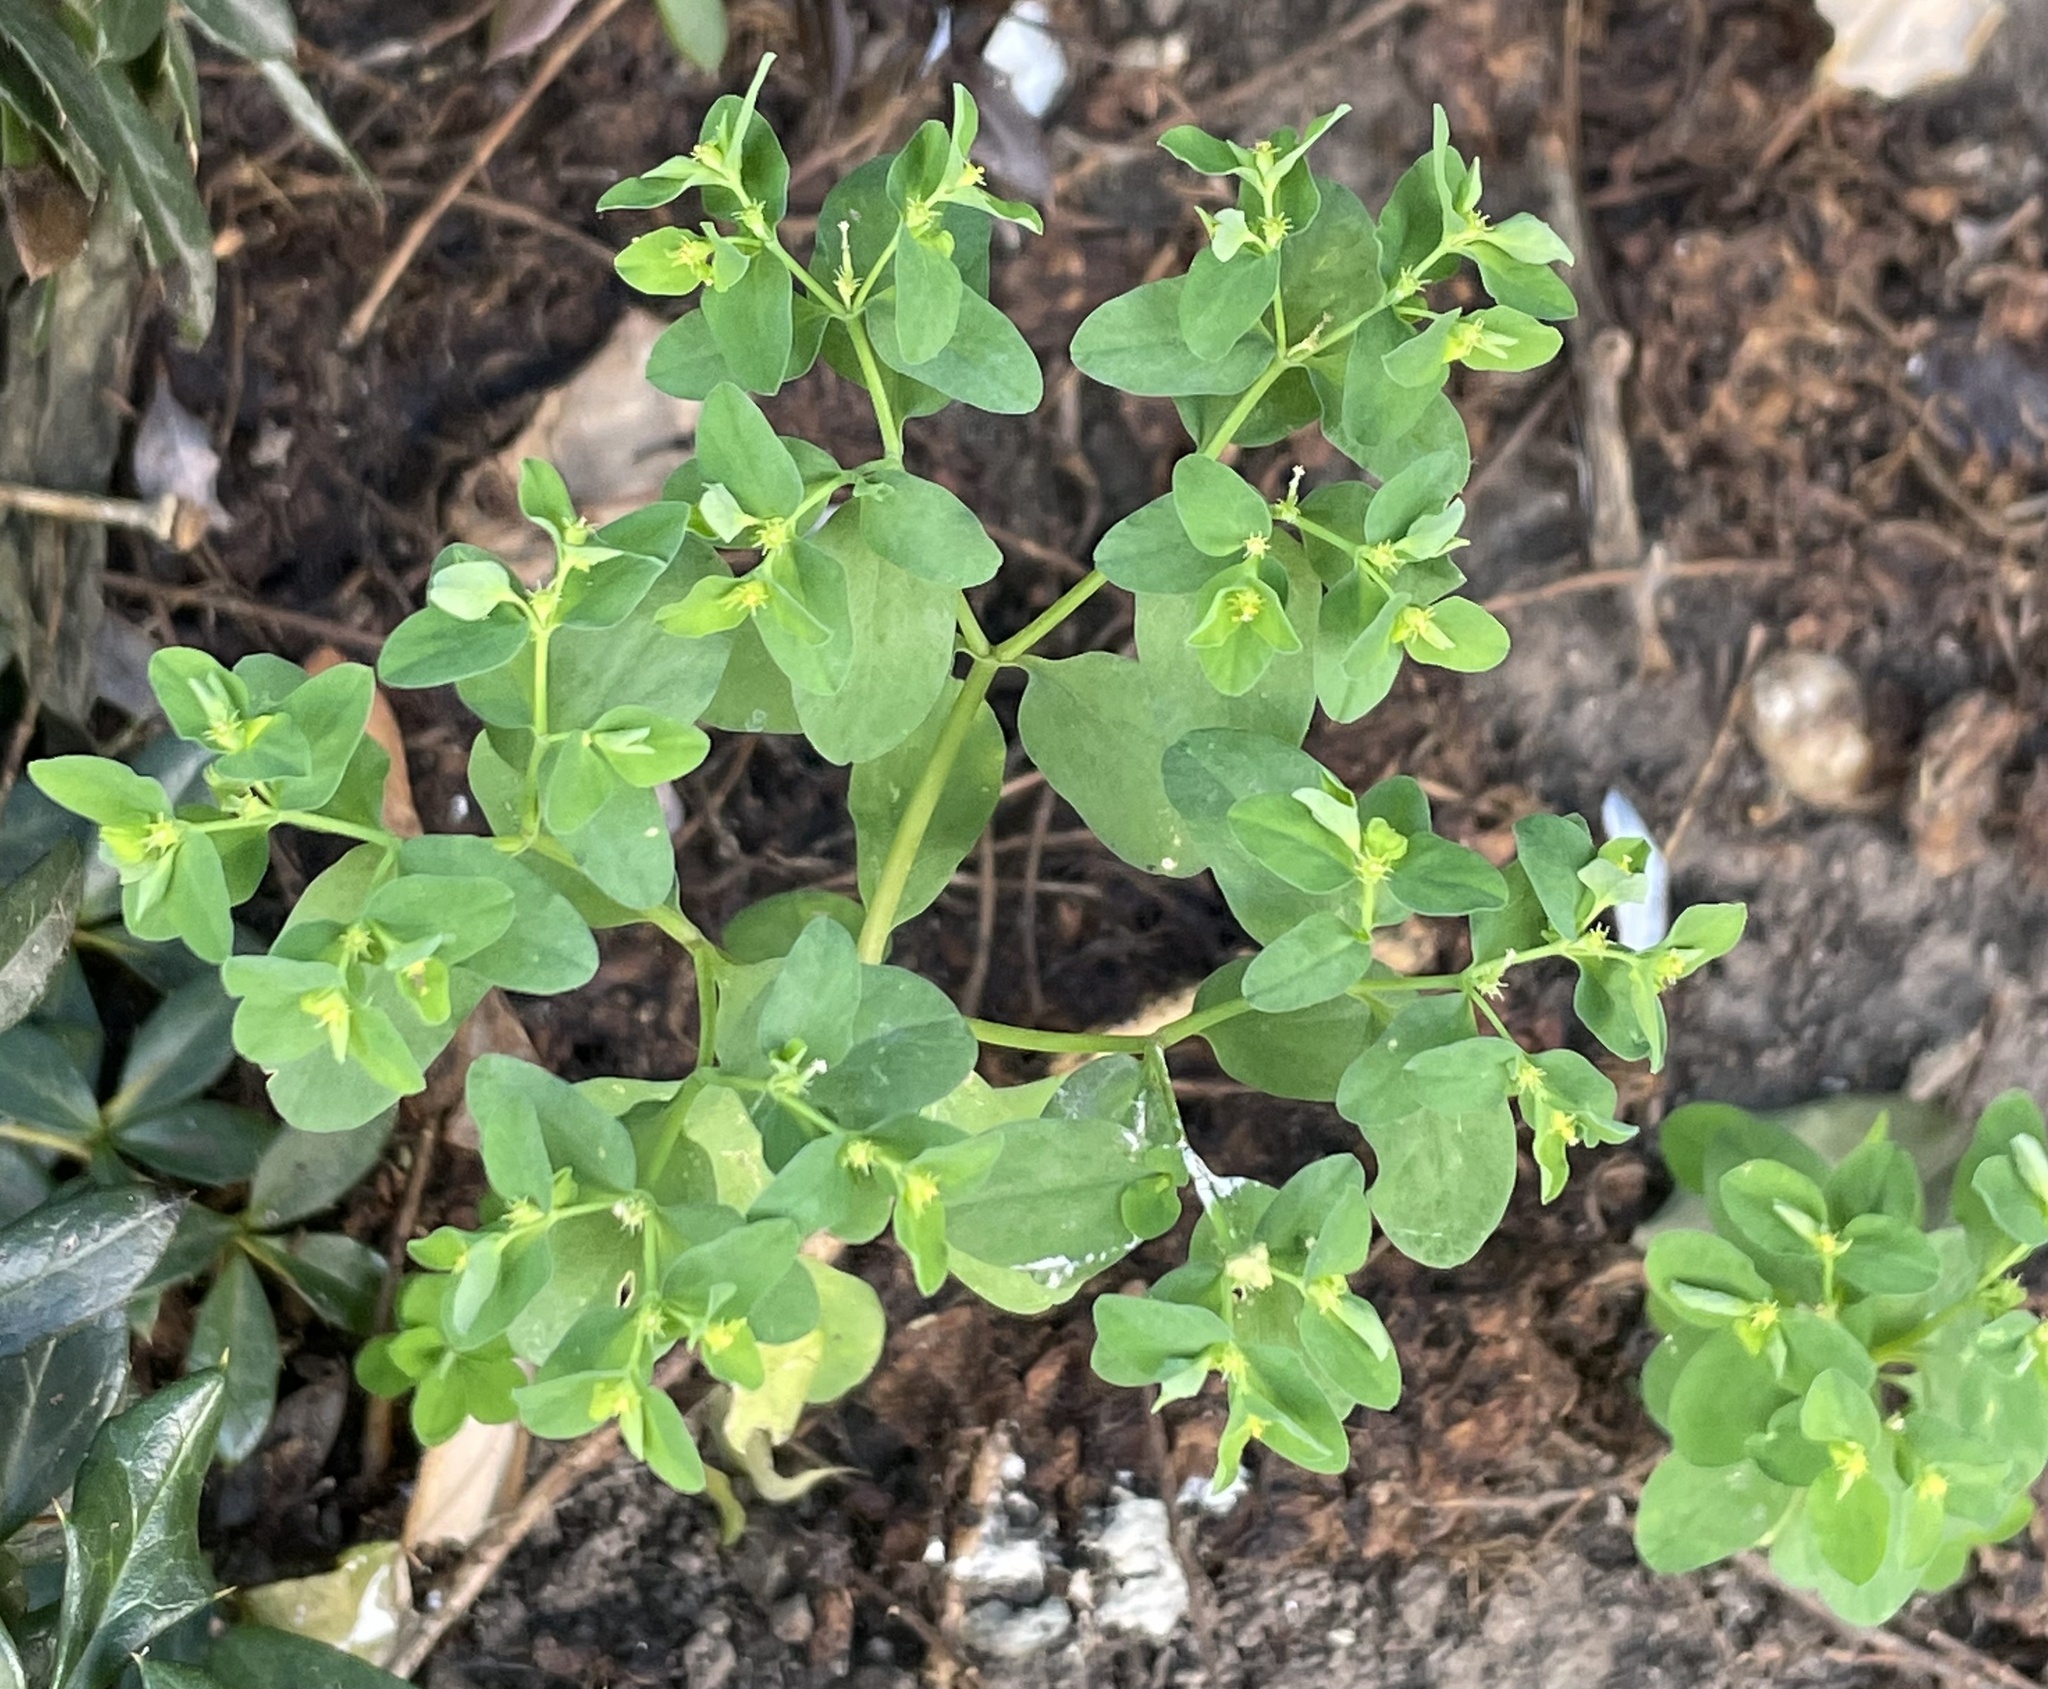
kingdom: Plantae
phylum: Tracheophyta
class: Magnoliopsida
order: Malpighiales
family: Euphorbiaceae
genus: Euphorbia
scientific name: Euphorbia peplus
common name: Petty spurge
